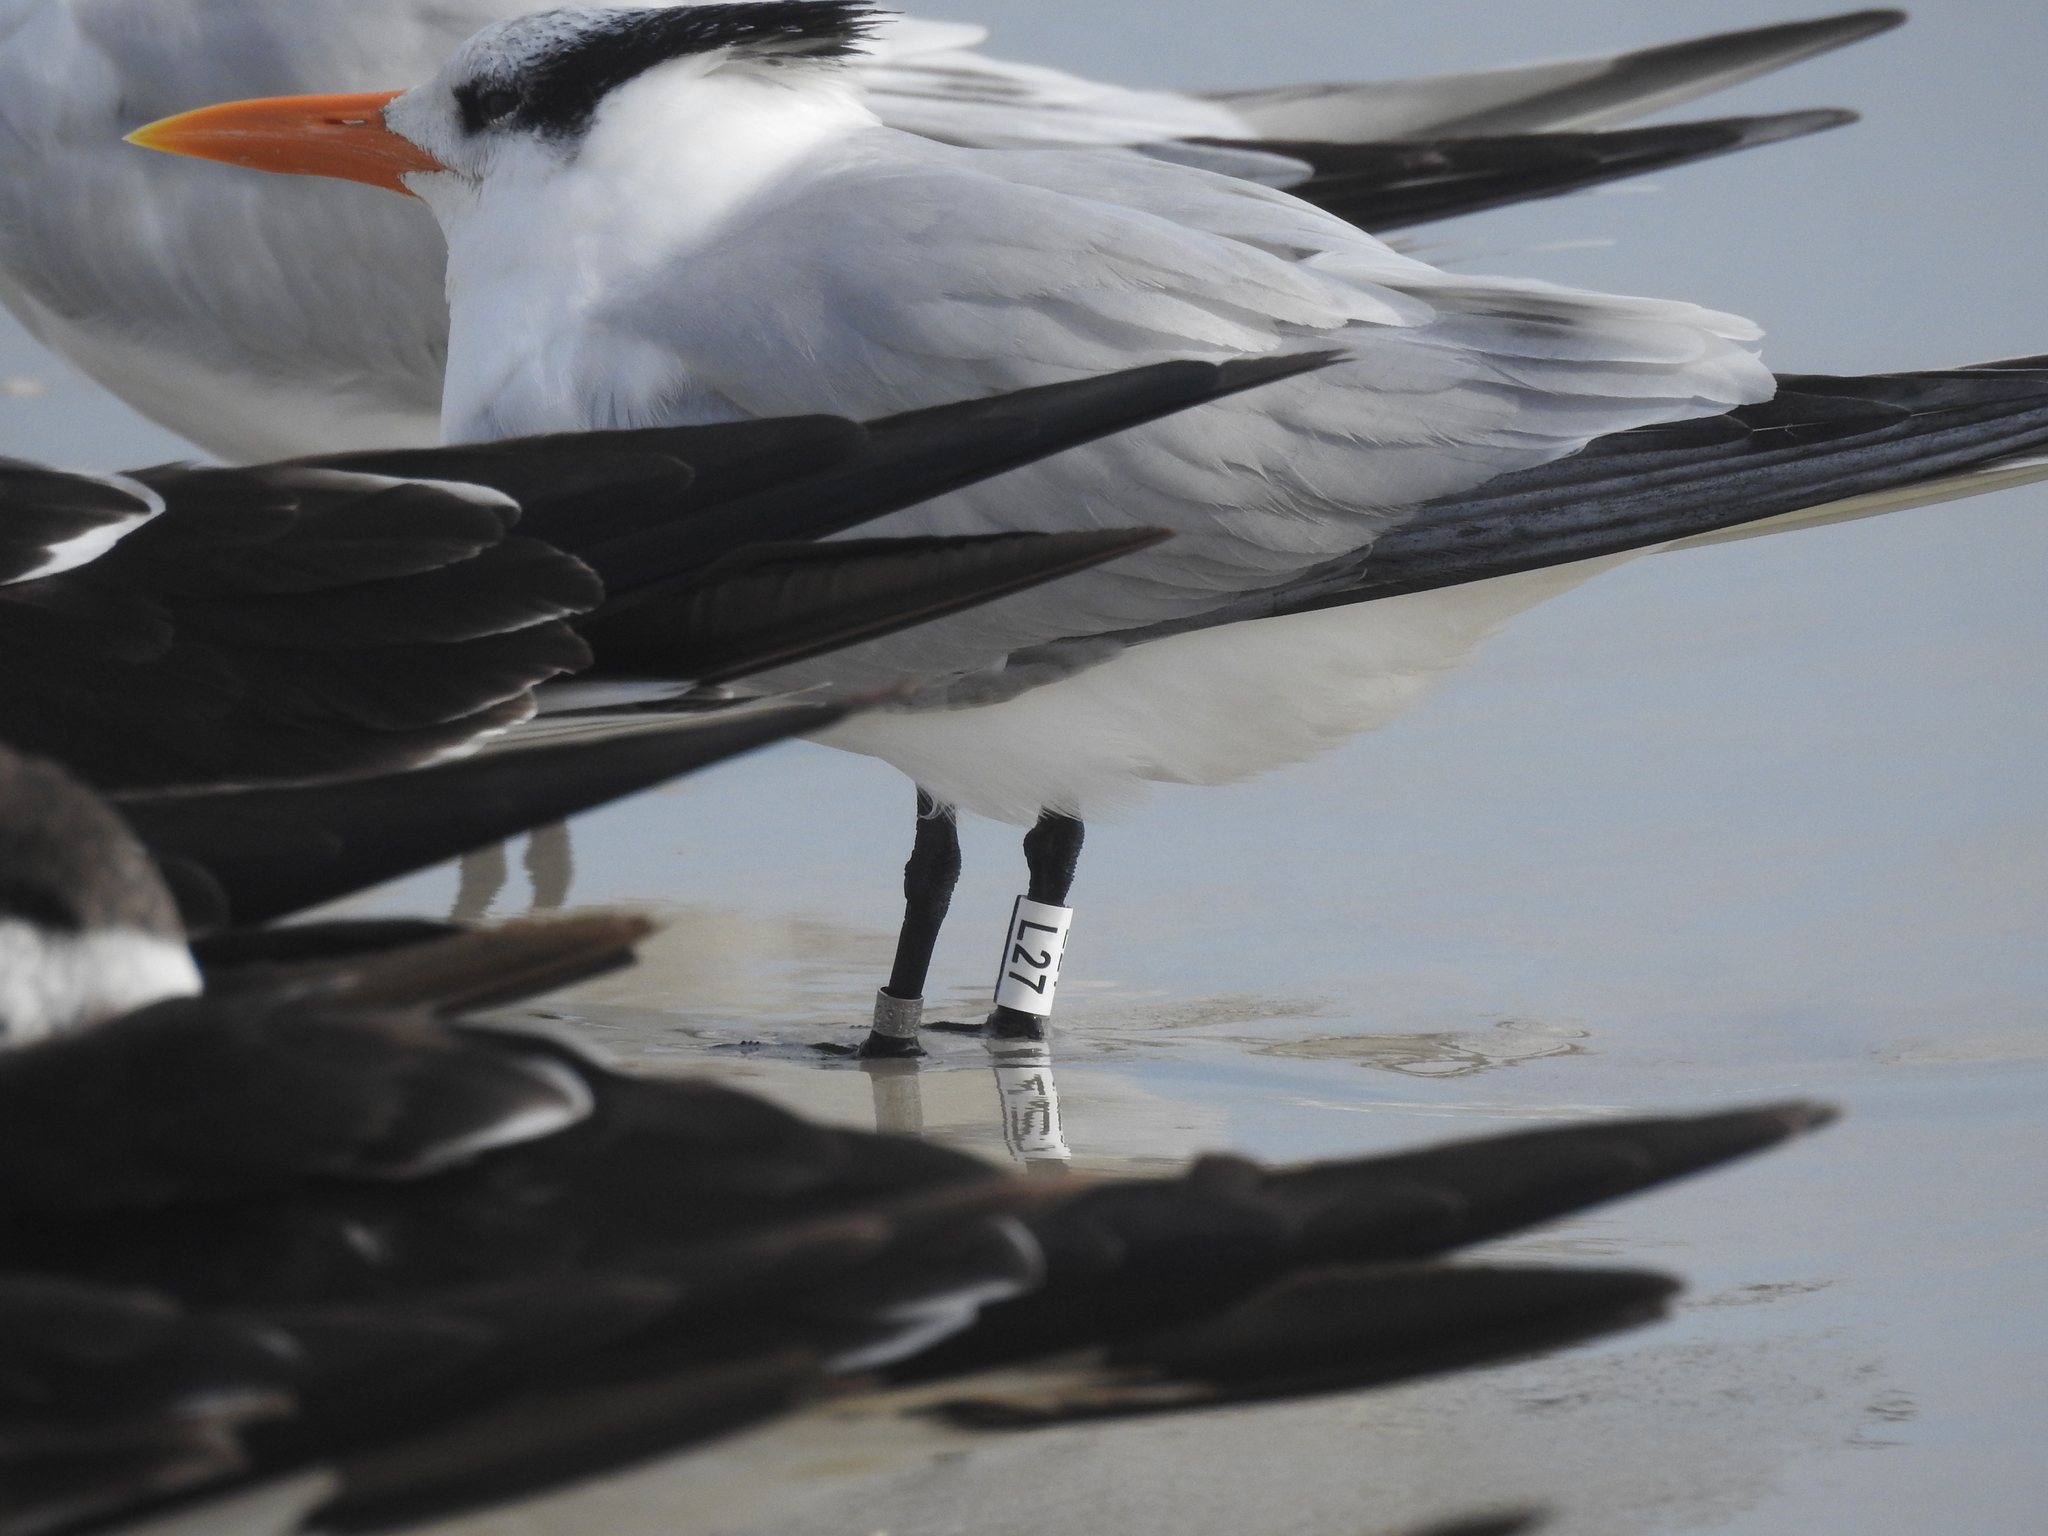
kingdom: Animalia
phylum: Chordata
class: Aves
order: Charadriiformes
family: Laridae
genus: Thalasseus
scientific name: Thalasseus maximus
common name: Royal tern
